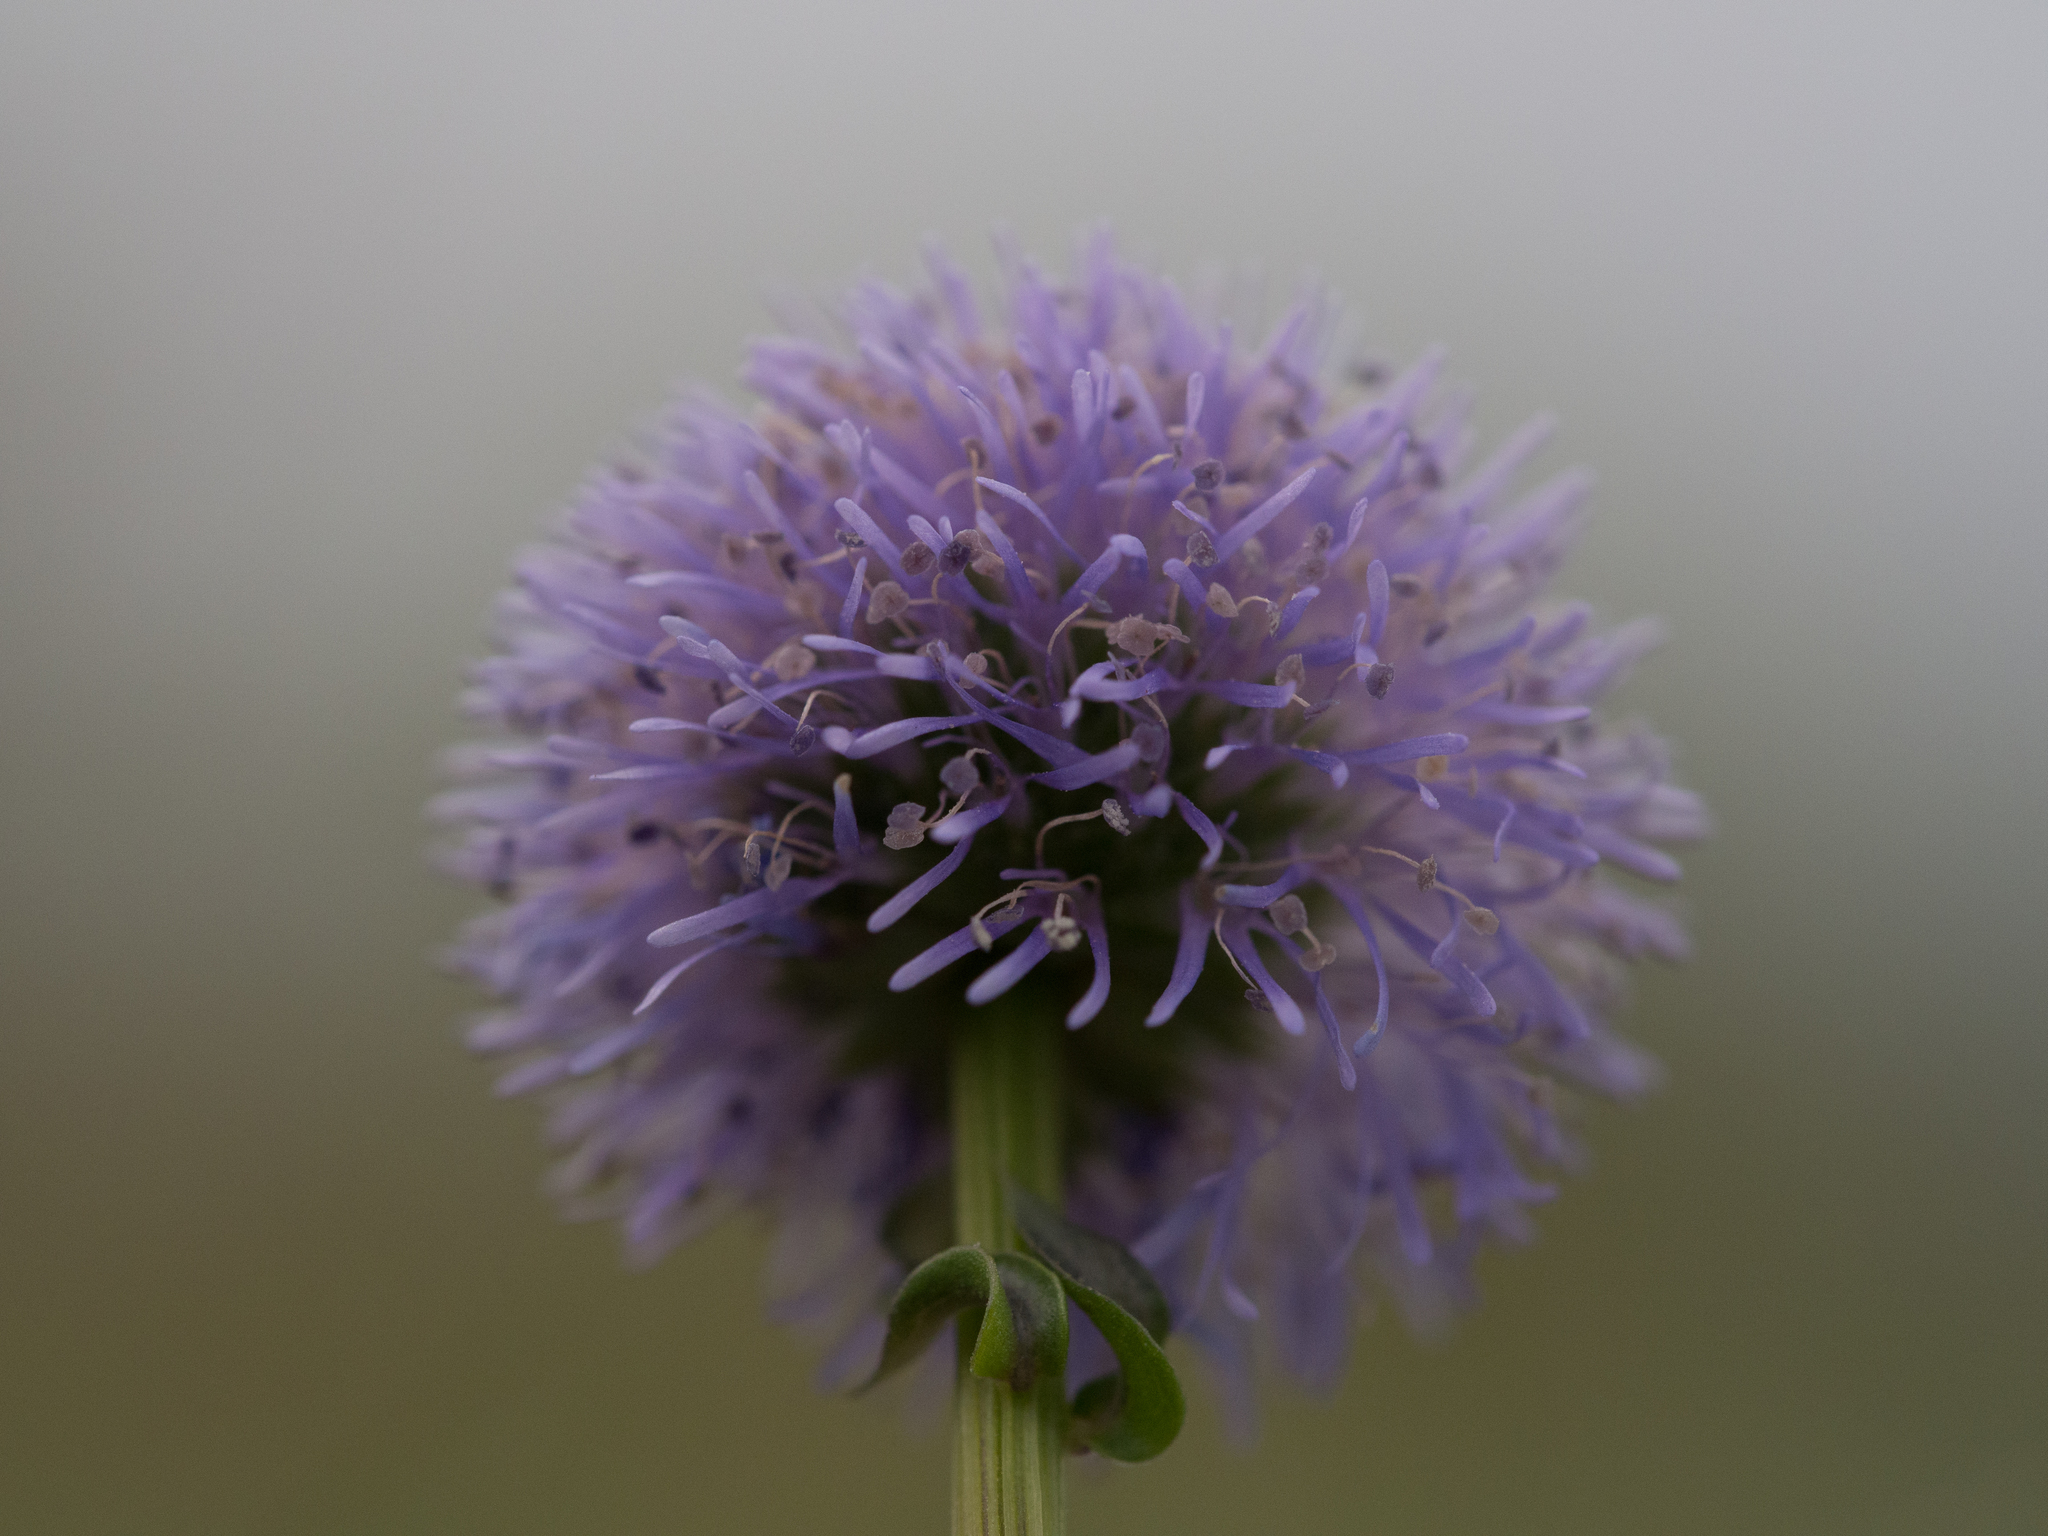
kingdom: Plantae
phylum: Tracheophyta
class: Magnoliopsida
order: Lamiales
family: Plantaginaceae
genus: Globularia
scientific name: Globularia bisnagarica
